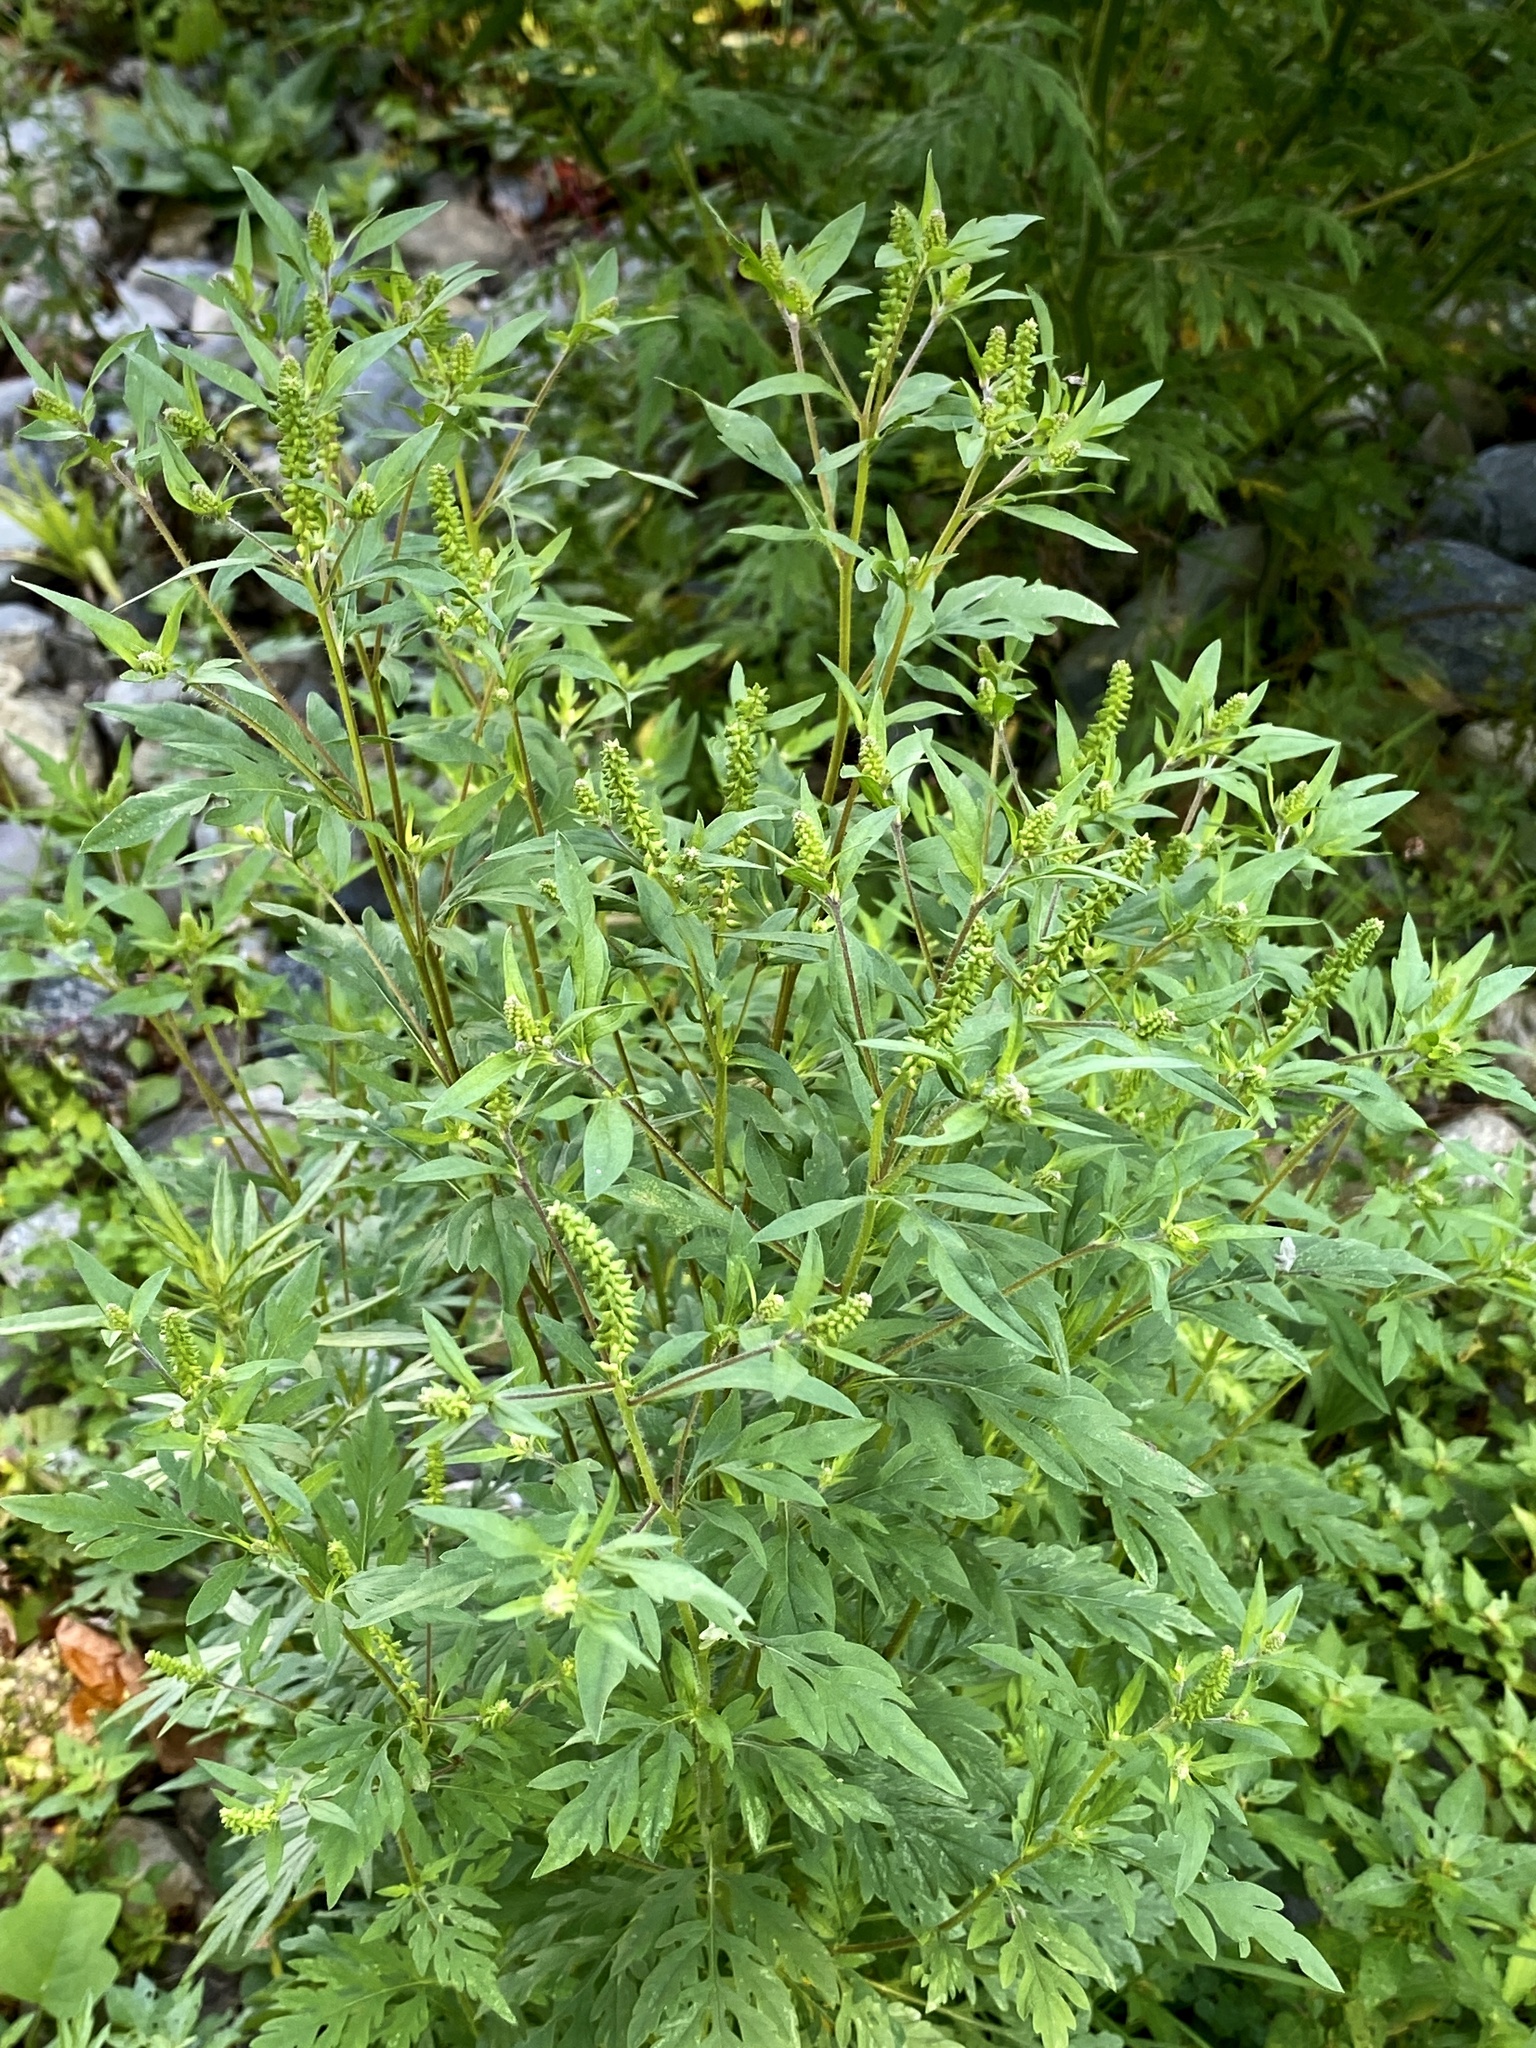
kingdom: Plantae
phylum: Tracheophyta
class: Magnoliopsida
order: Asterales
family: Asteraceae
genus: Ambrosia
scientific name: Ambrosia artemisiifolia
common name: Annual ragweed
